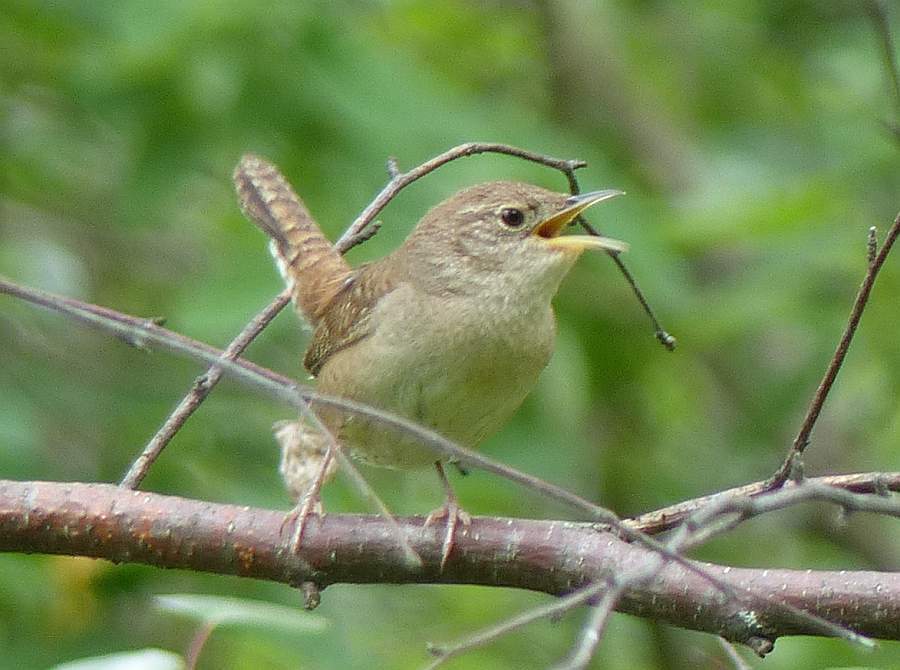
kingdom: Animalia
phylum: Chordata
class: Aves
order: Passeriformes
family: Troglodytidae
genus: Troglodytes
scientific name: Troglodytes aedon
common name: House wren
